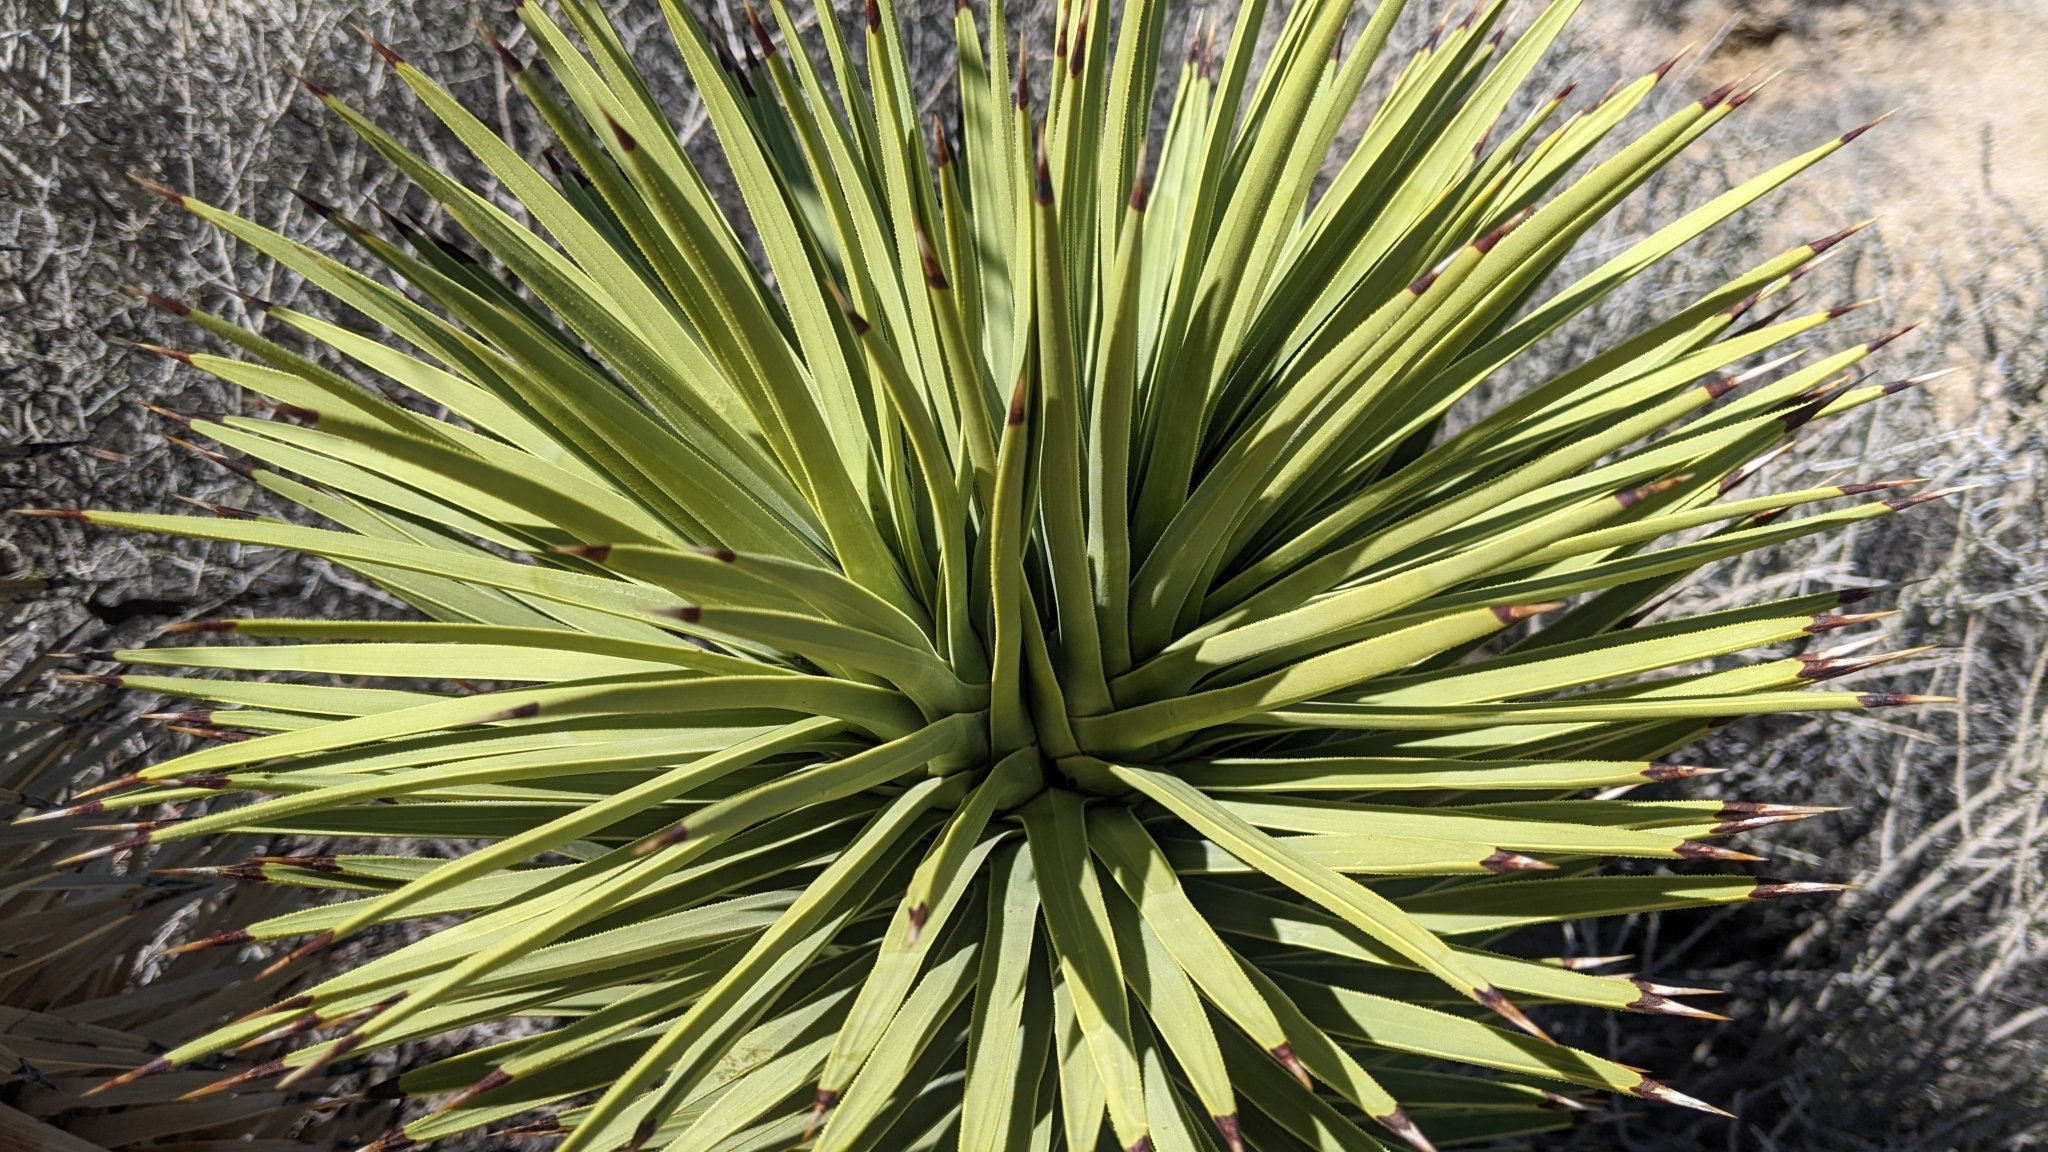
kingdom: Animalia
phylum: Arthropoda
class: Insecta
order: Hemiptera
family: Cicadellidae
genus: Cuerna
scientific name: Cuerna yuccae
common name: Yucca sharpshooter
